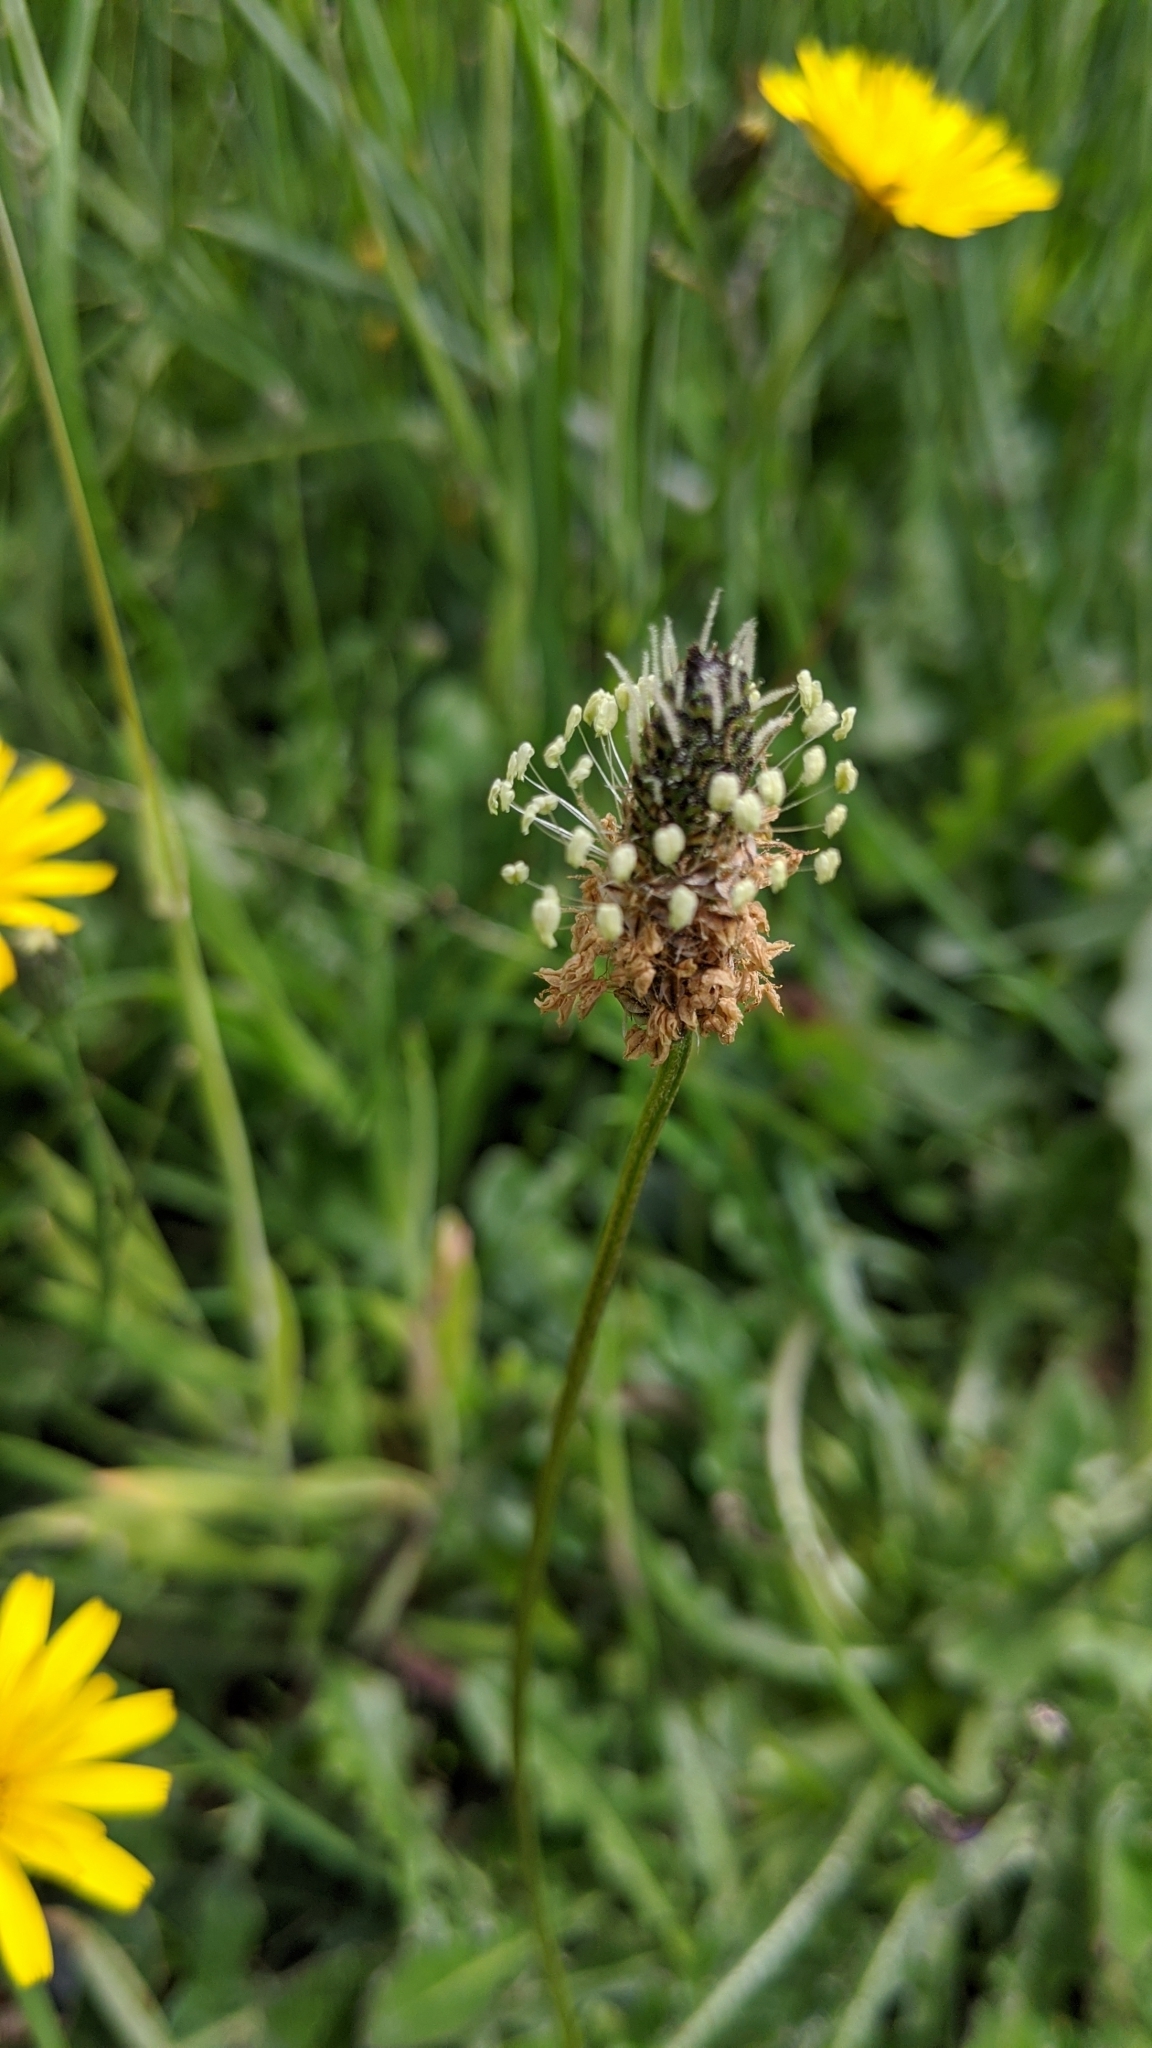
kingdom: Plantae
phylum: Tracheophyta
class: Magnoliopsida
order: Lamiales
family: Plantaginaceae
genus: Plantago
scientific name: Plantago lanceolata
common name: Ribwort plantain
